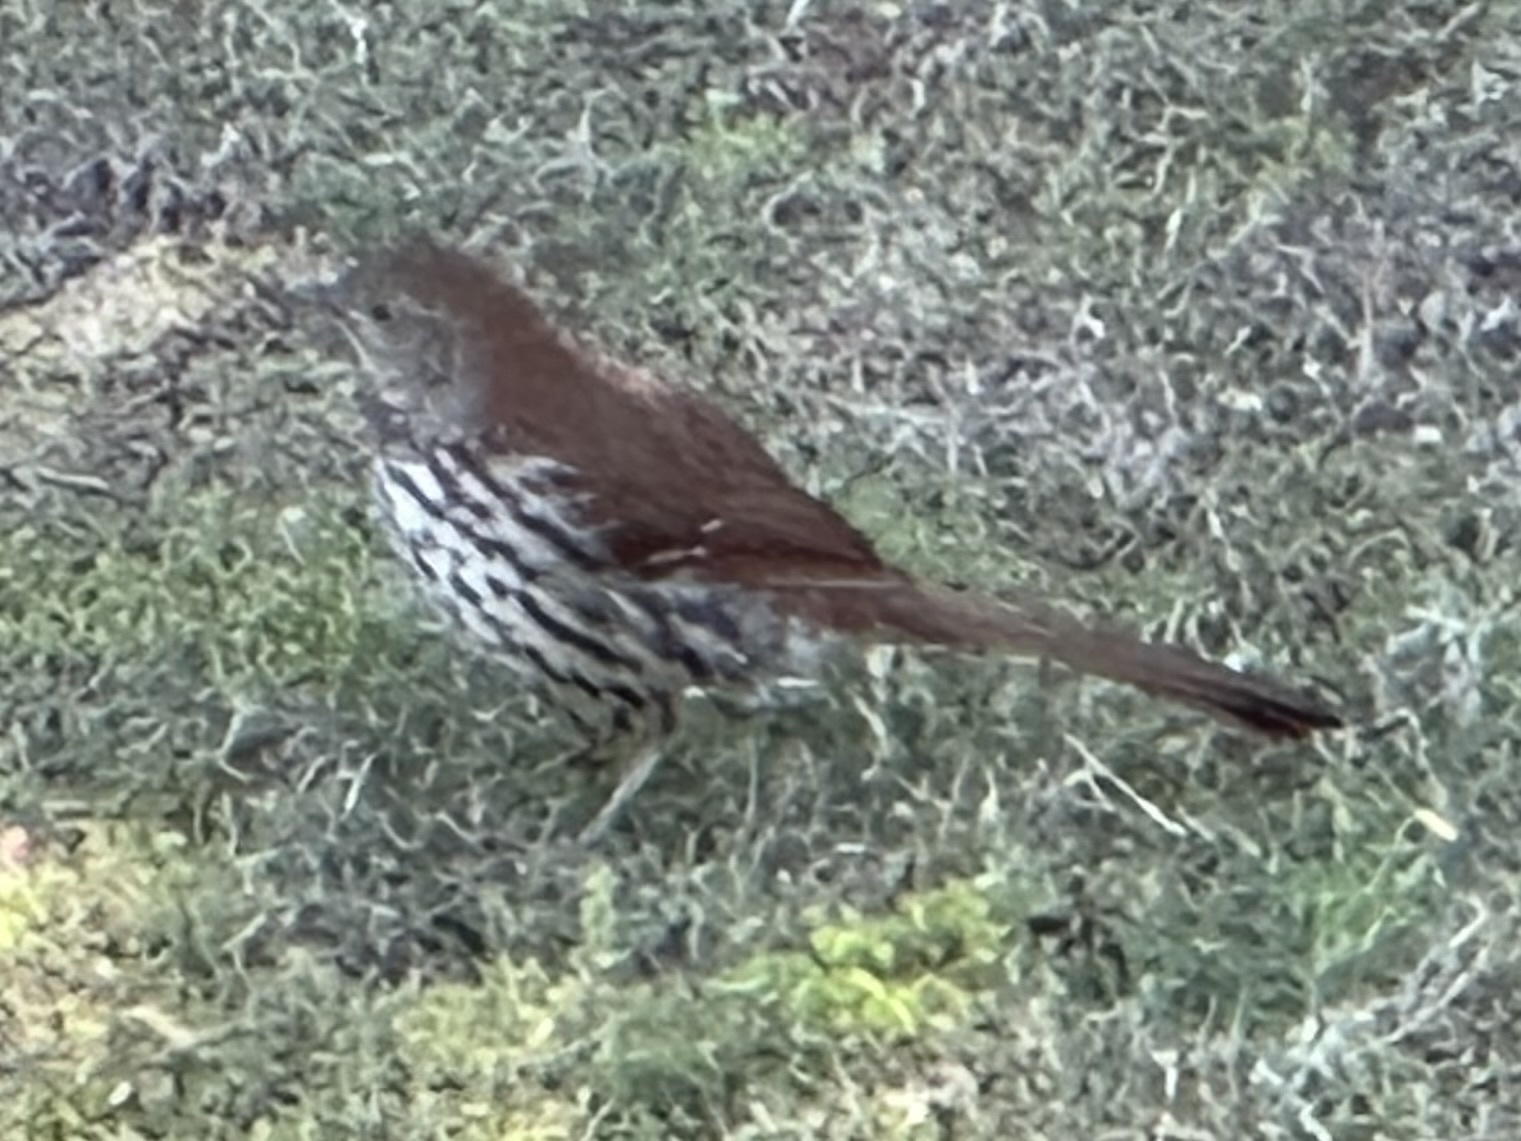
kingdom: Animalia
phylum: Chordata
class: Aves
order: Passeriformes
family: Mimidae
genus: Toxostoma
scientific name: Toxostoma rufum
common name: Brown thrasher
